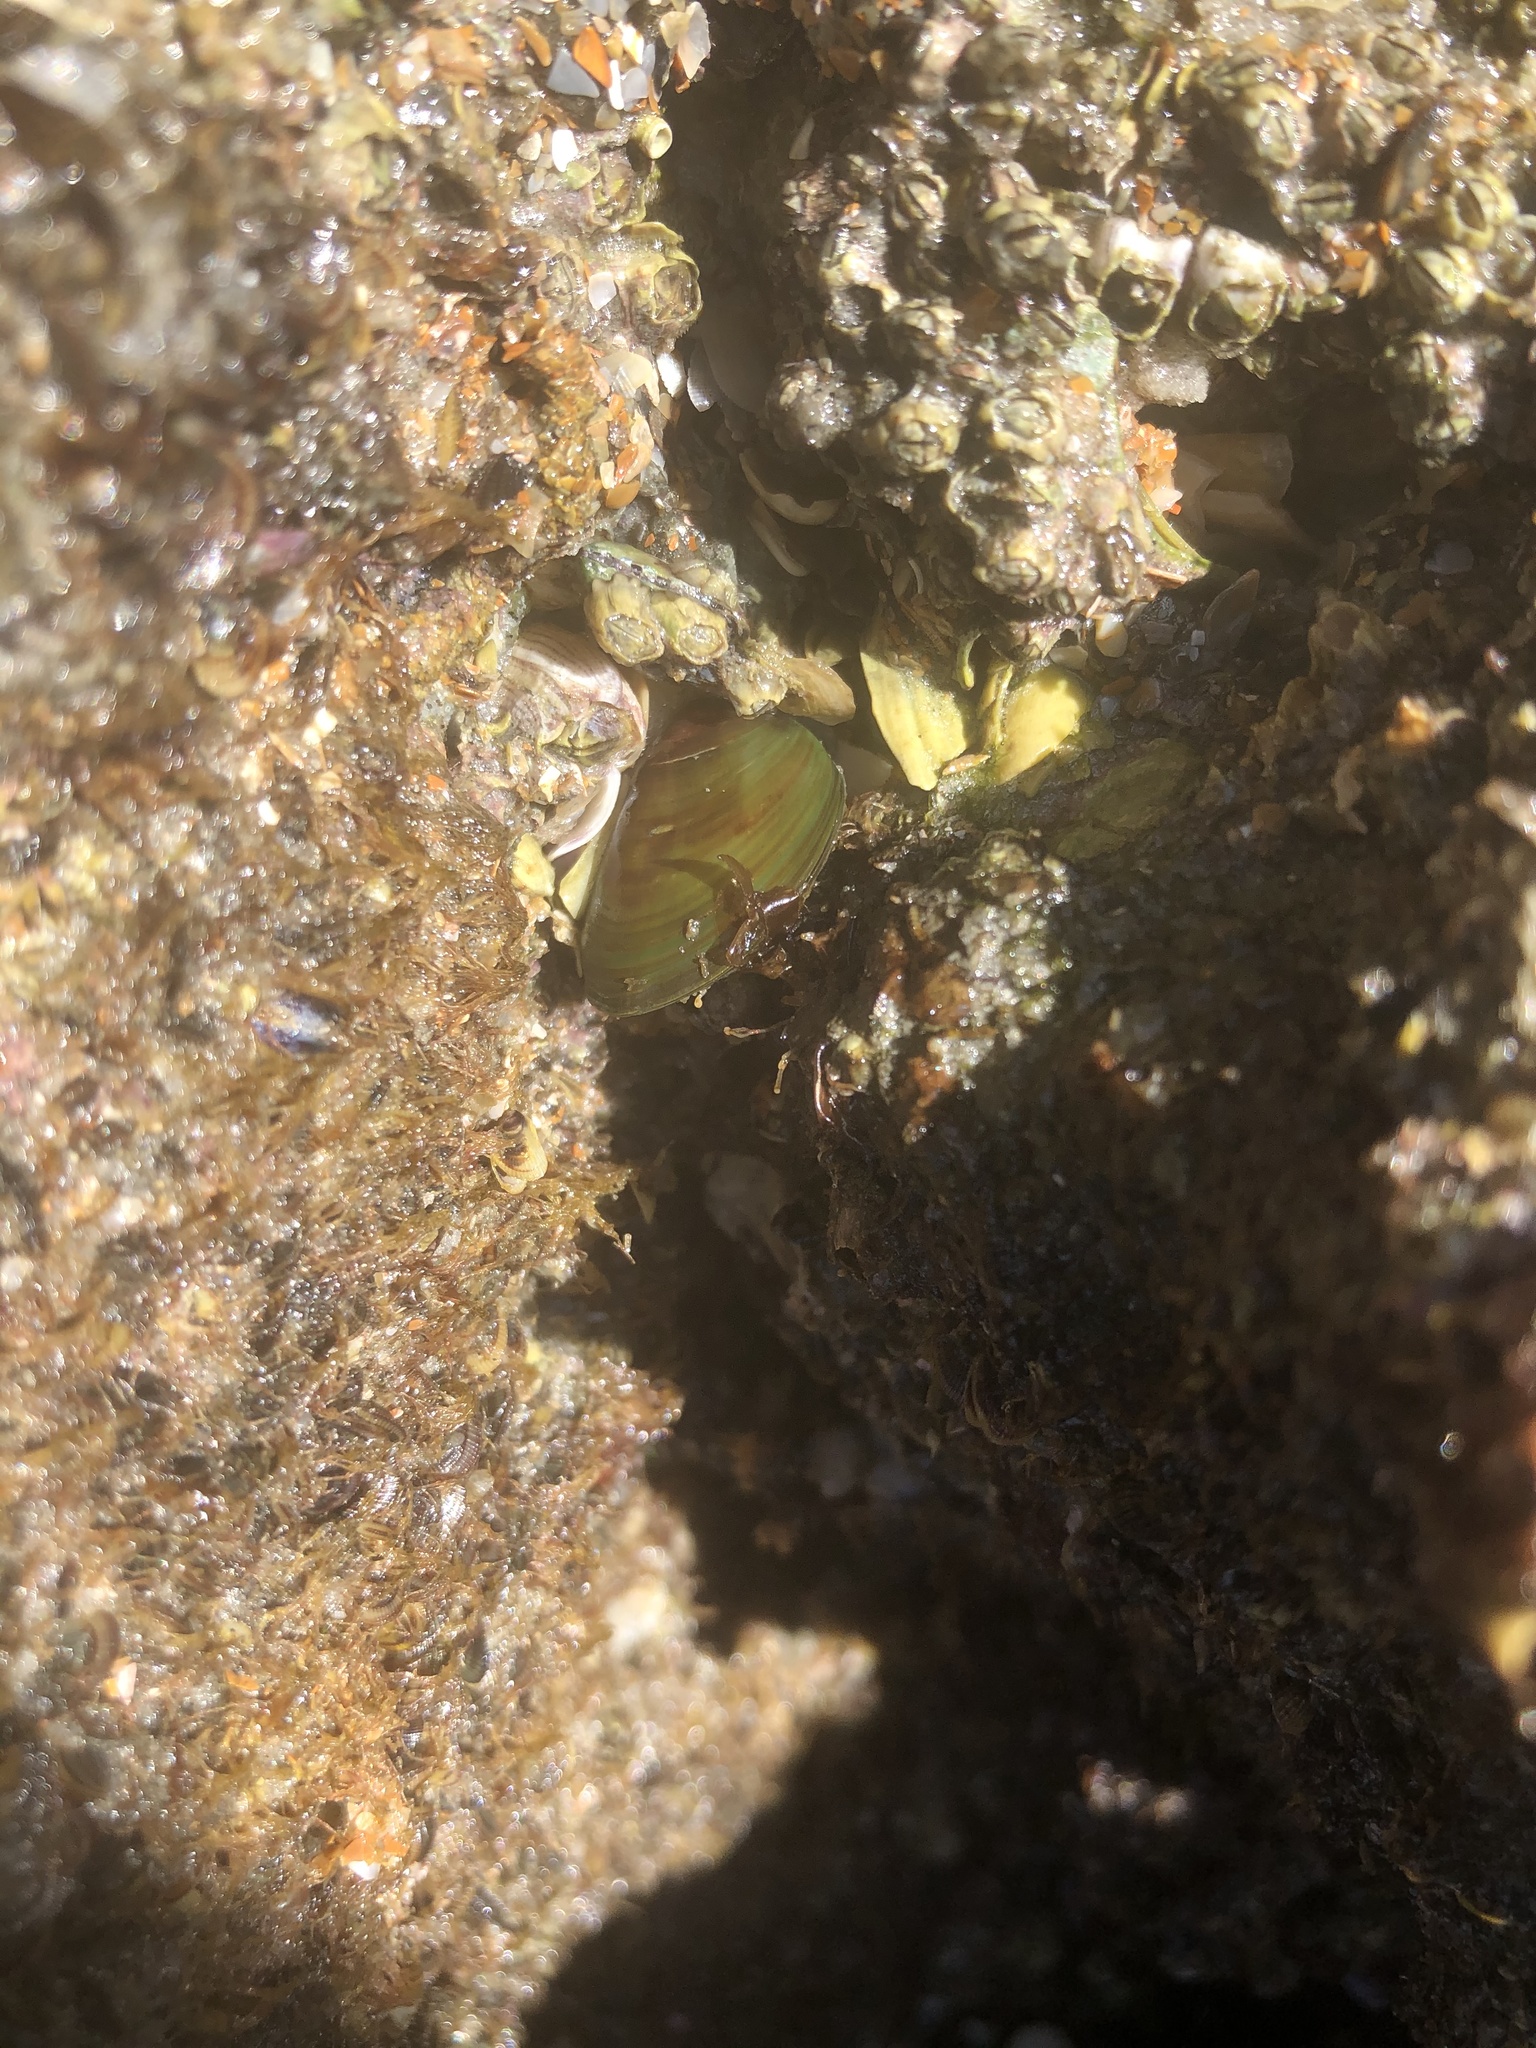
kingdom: Animalia
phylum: Mollusca
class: Bivalvia
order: Mytilida
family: Mytilidae
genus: Perna
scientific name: Perna viridis
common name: Green mussel
